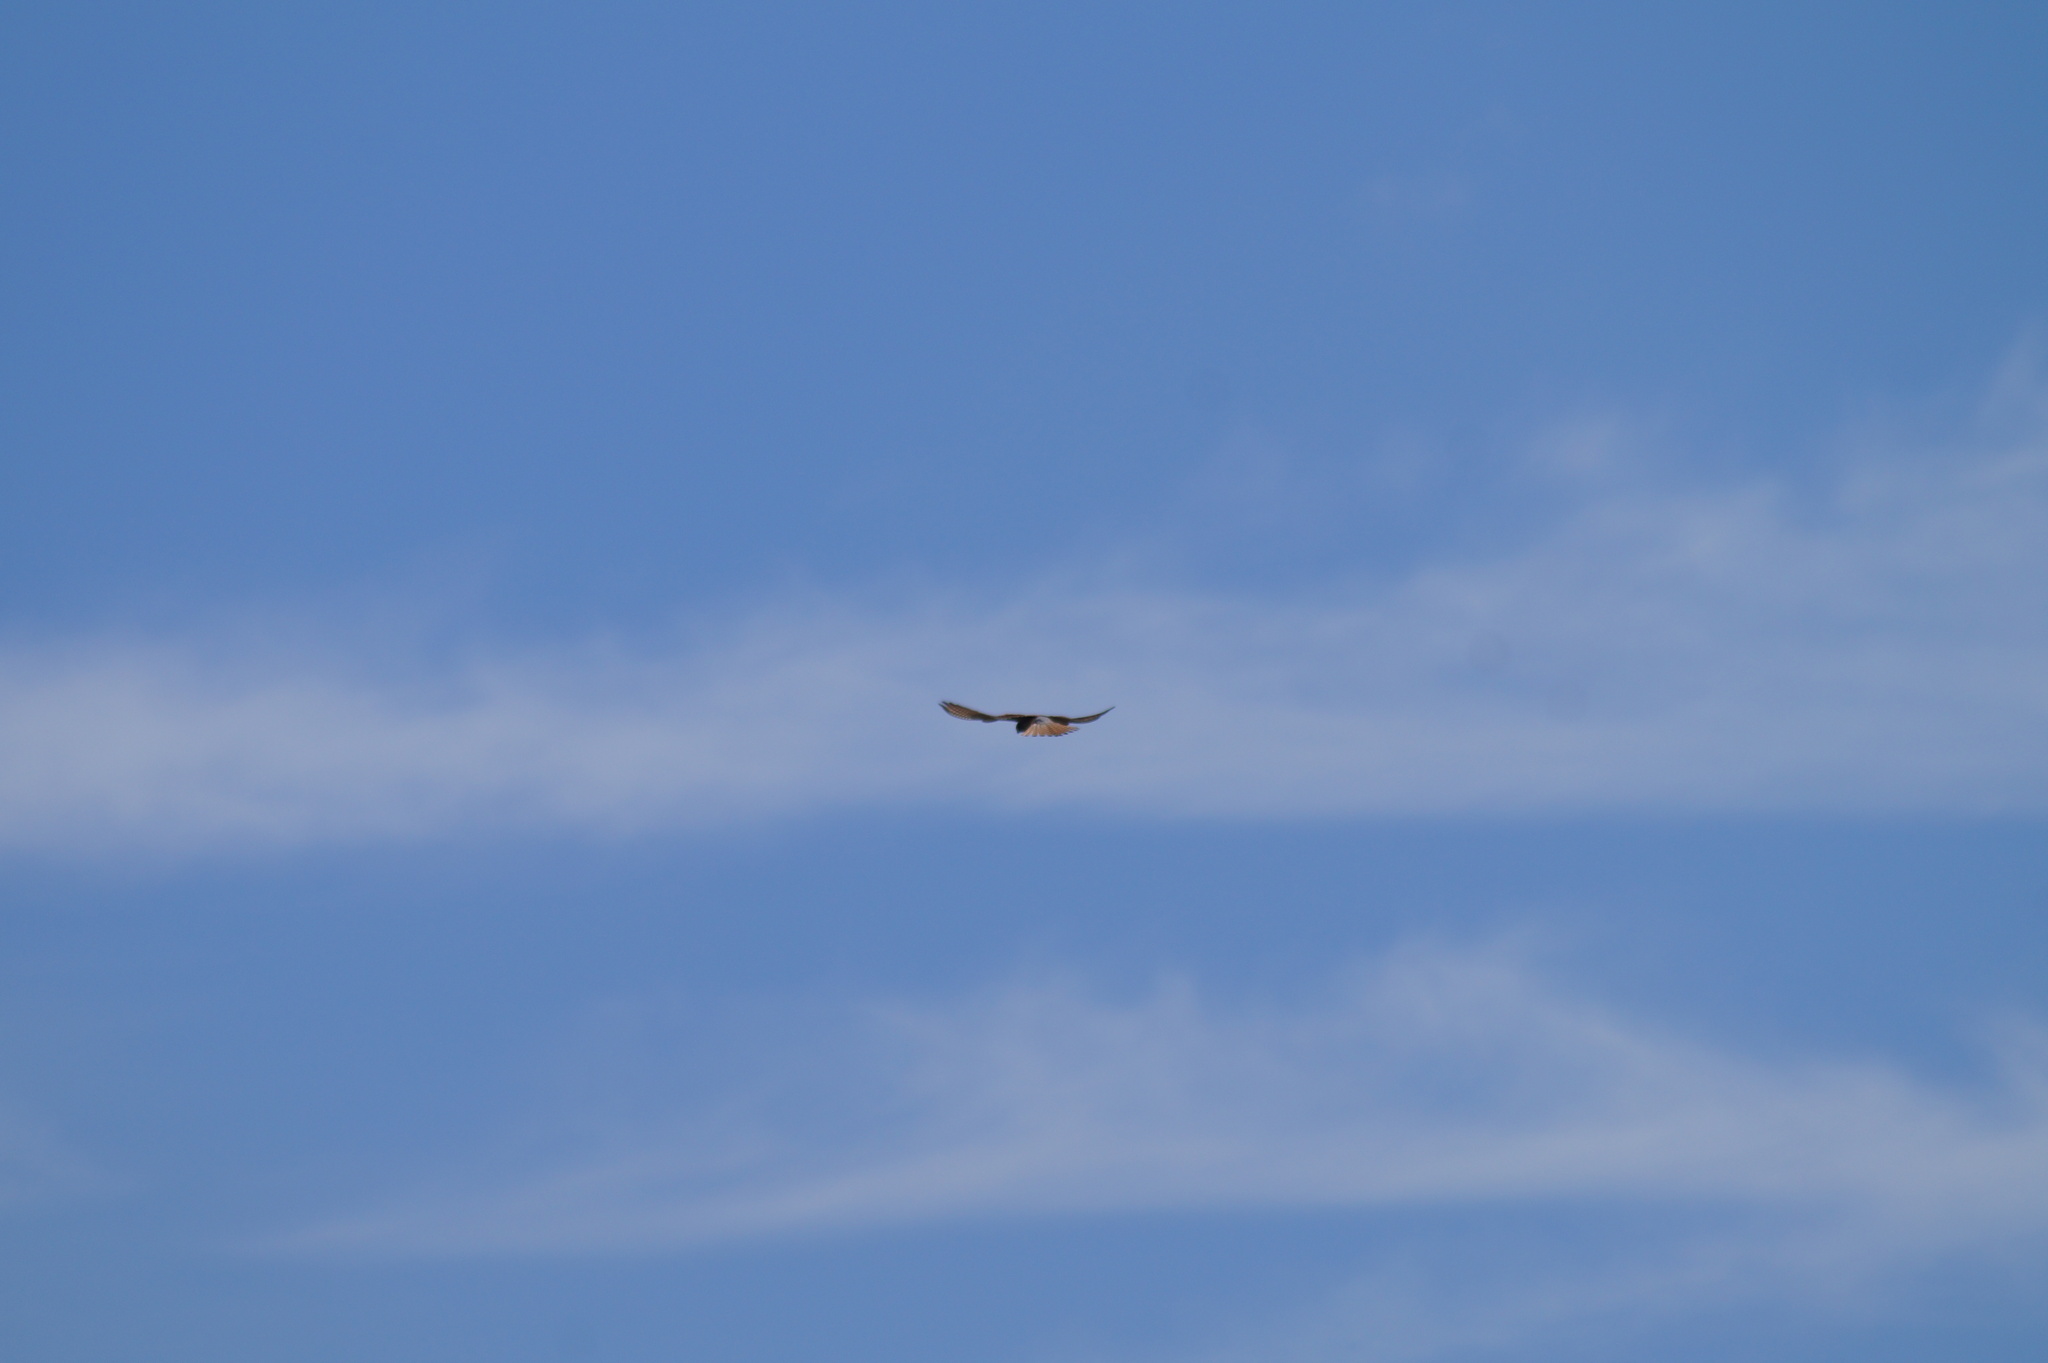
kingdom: Animalia
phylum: Chordata
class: Aves
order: Falconiformes
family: Falconidae
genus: Falco
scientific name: Falco tinnunculus
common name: Common kestrel
